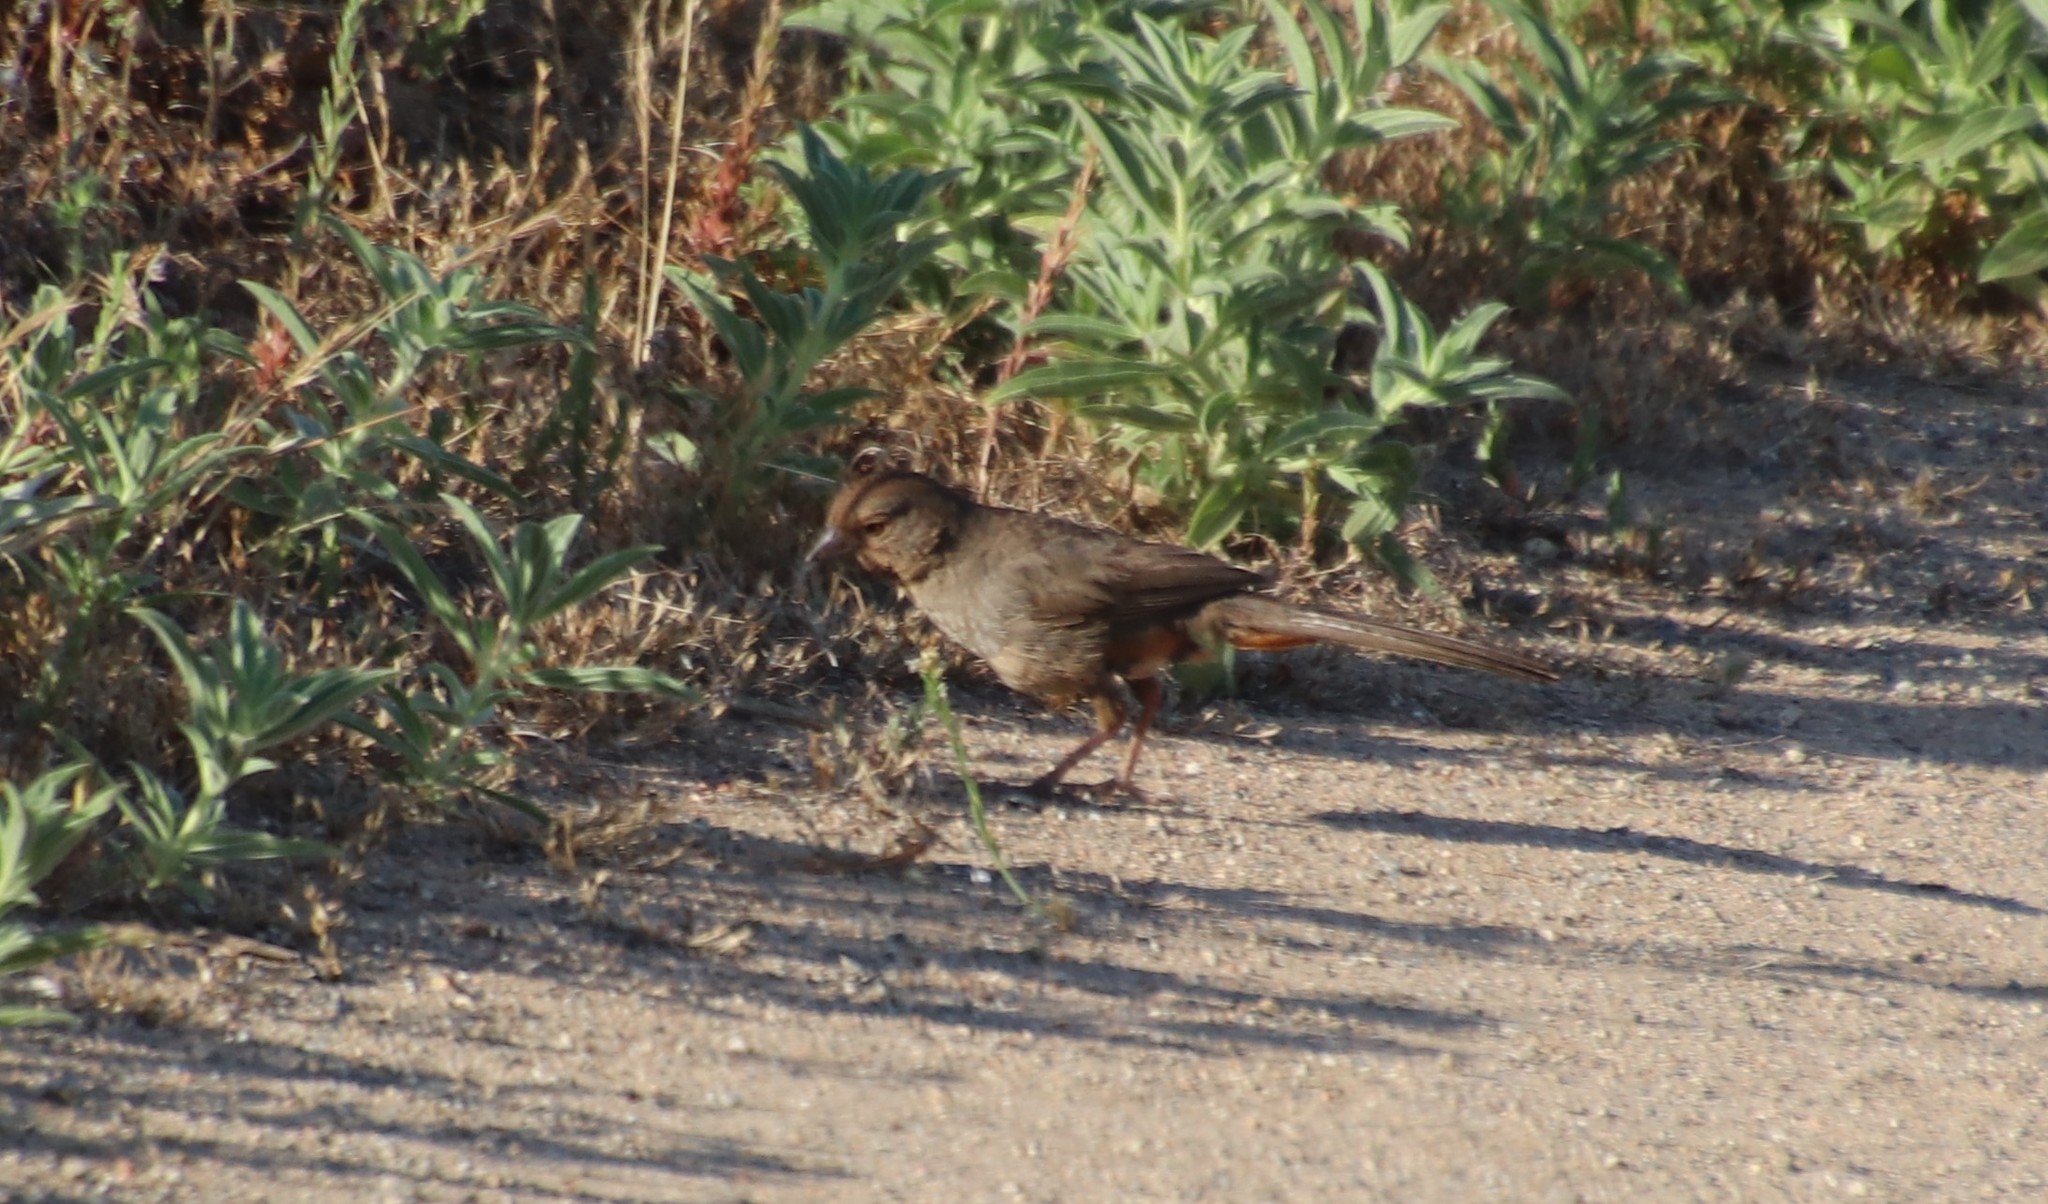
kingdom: Animalia
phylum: Chordata
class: Aves
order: Passeriformes
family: Passerellidae
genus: Melozone
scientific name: Melozone crissalis
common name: California towhee
